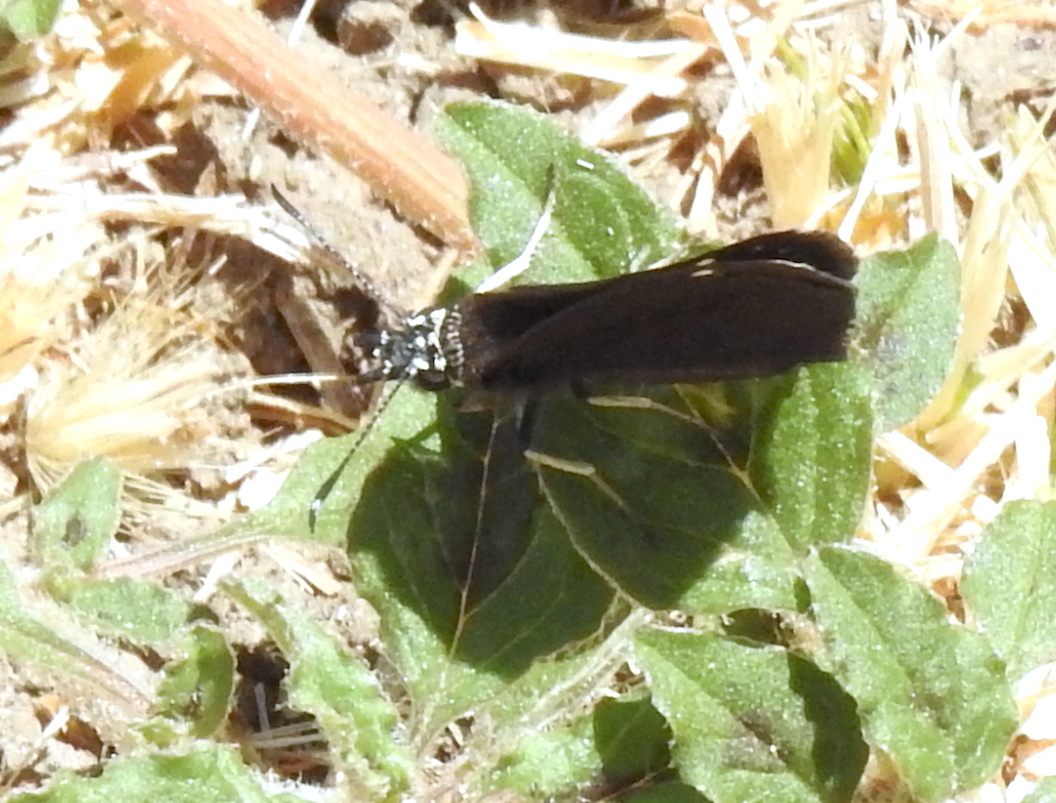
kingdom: Animalia
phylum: Arthropoda
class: Insecta
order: Lepidoptera
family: Hesperiidae
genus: Pholisora
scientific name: Pholisora catullus
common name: Common sootywing
